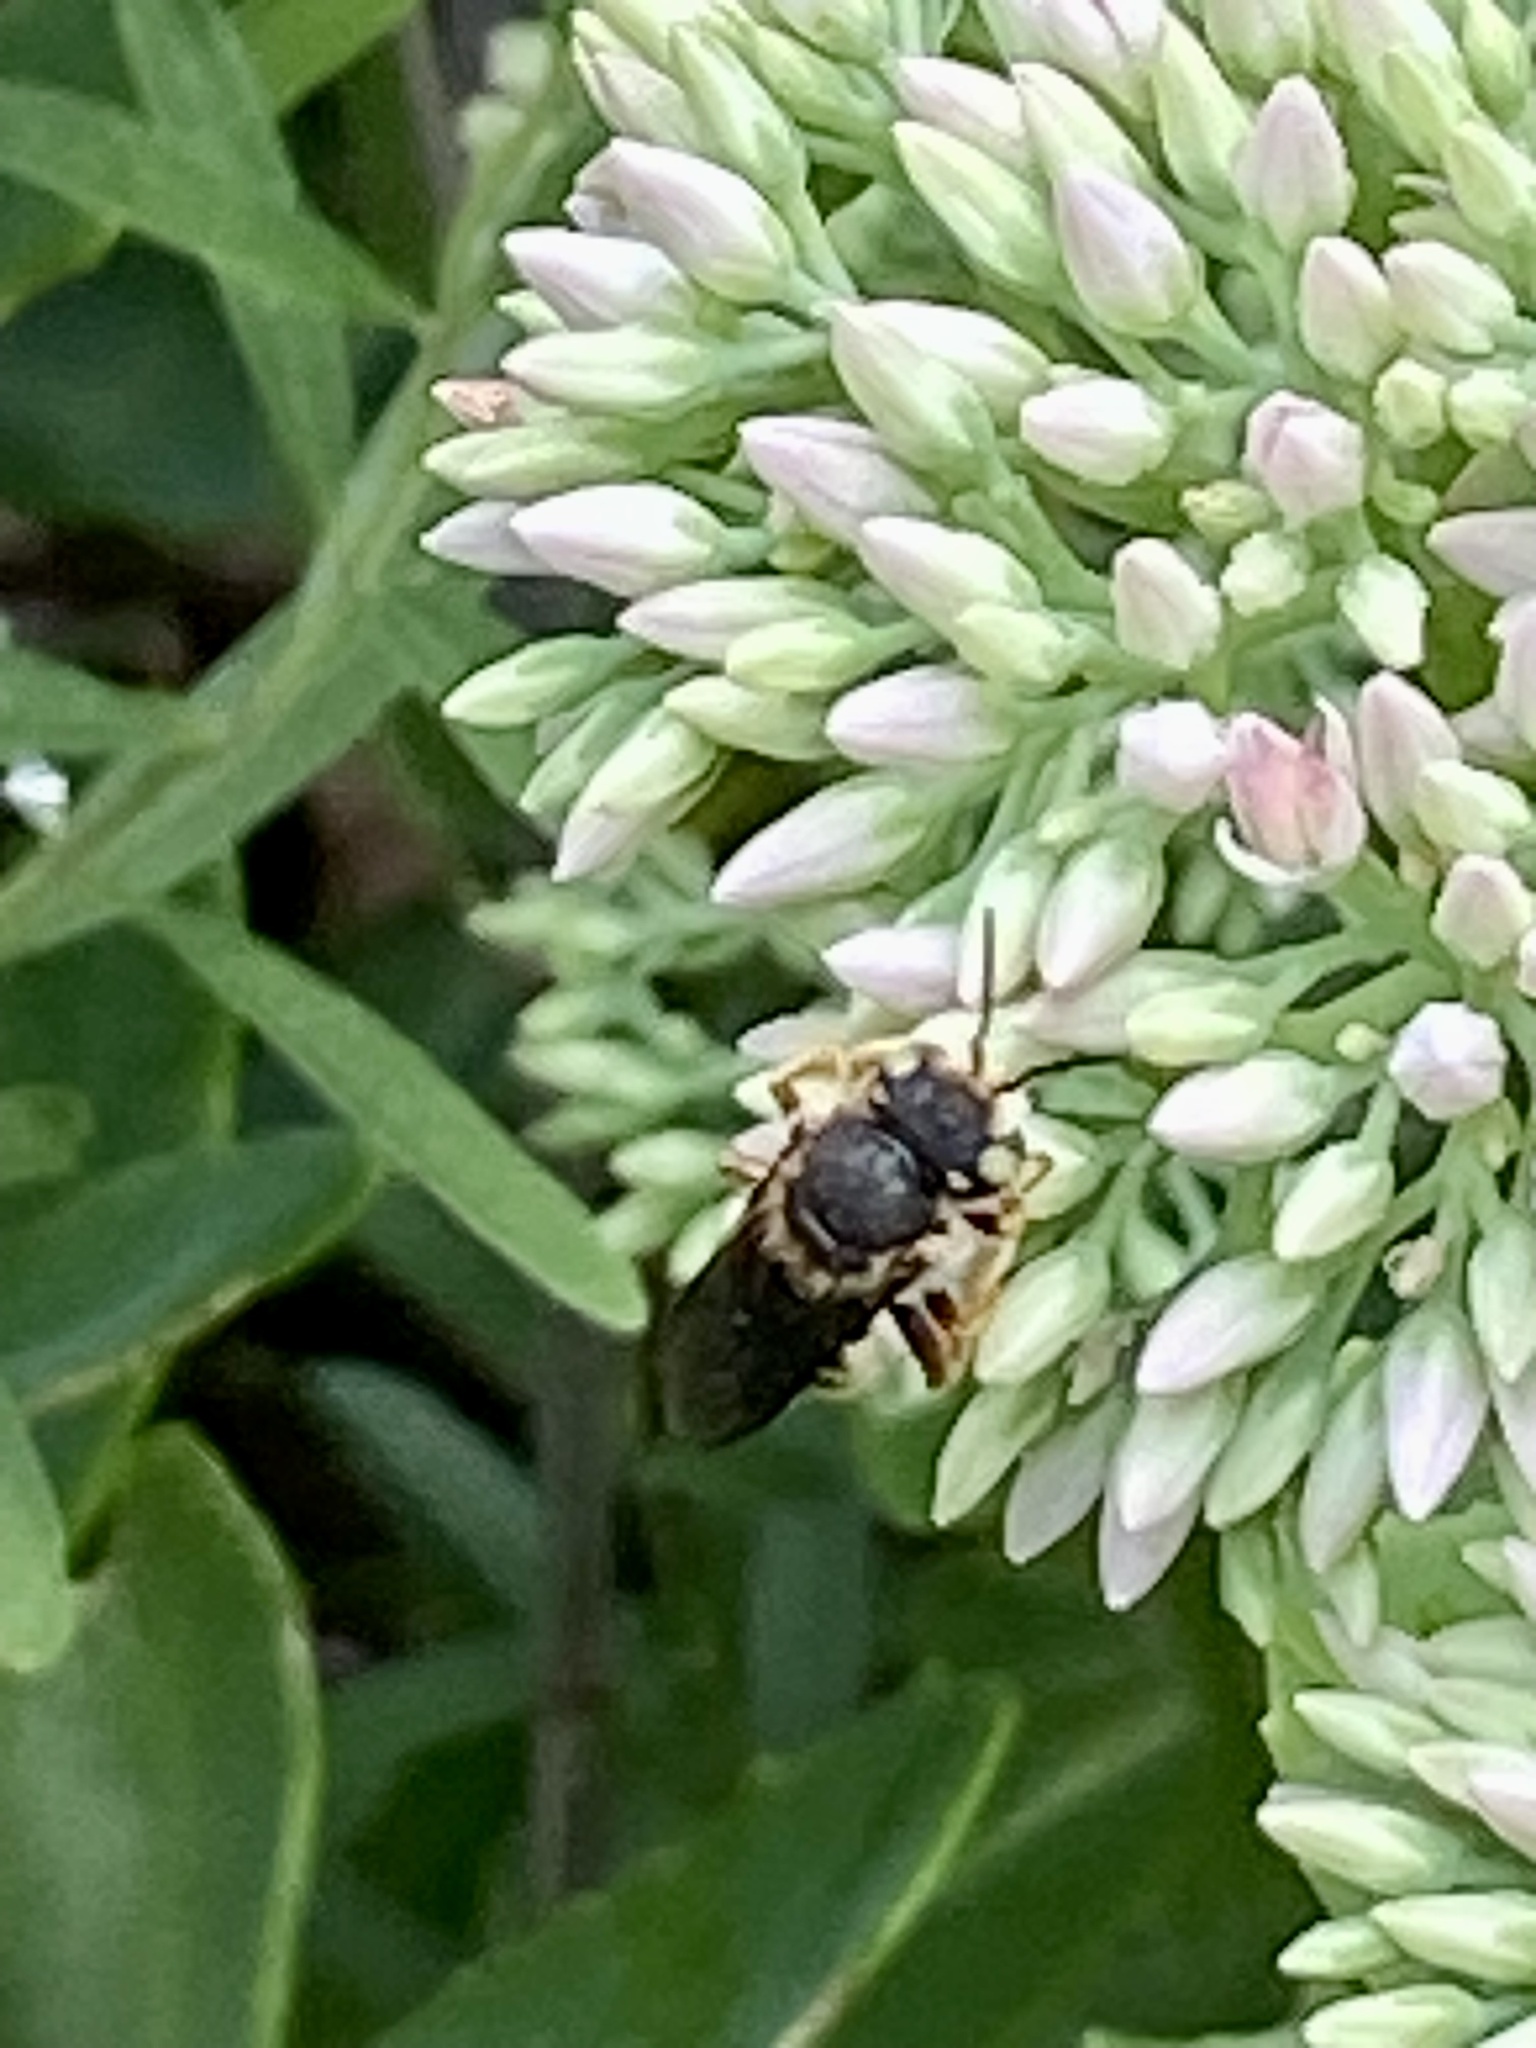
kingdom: Animalia
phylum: Arthropoda
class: Insecta
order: Hymenoptera
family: Megachilidae
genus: Anthidium
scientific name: Anthidium oblongatum
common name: Oblong wool carder bee
